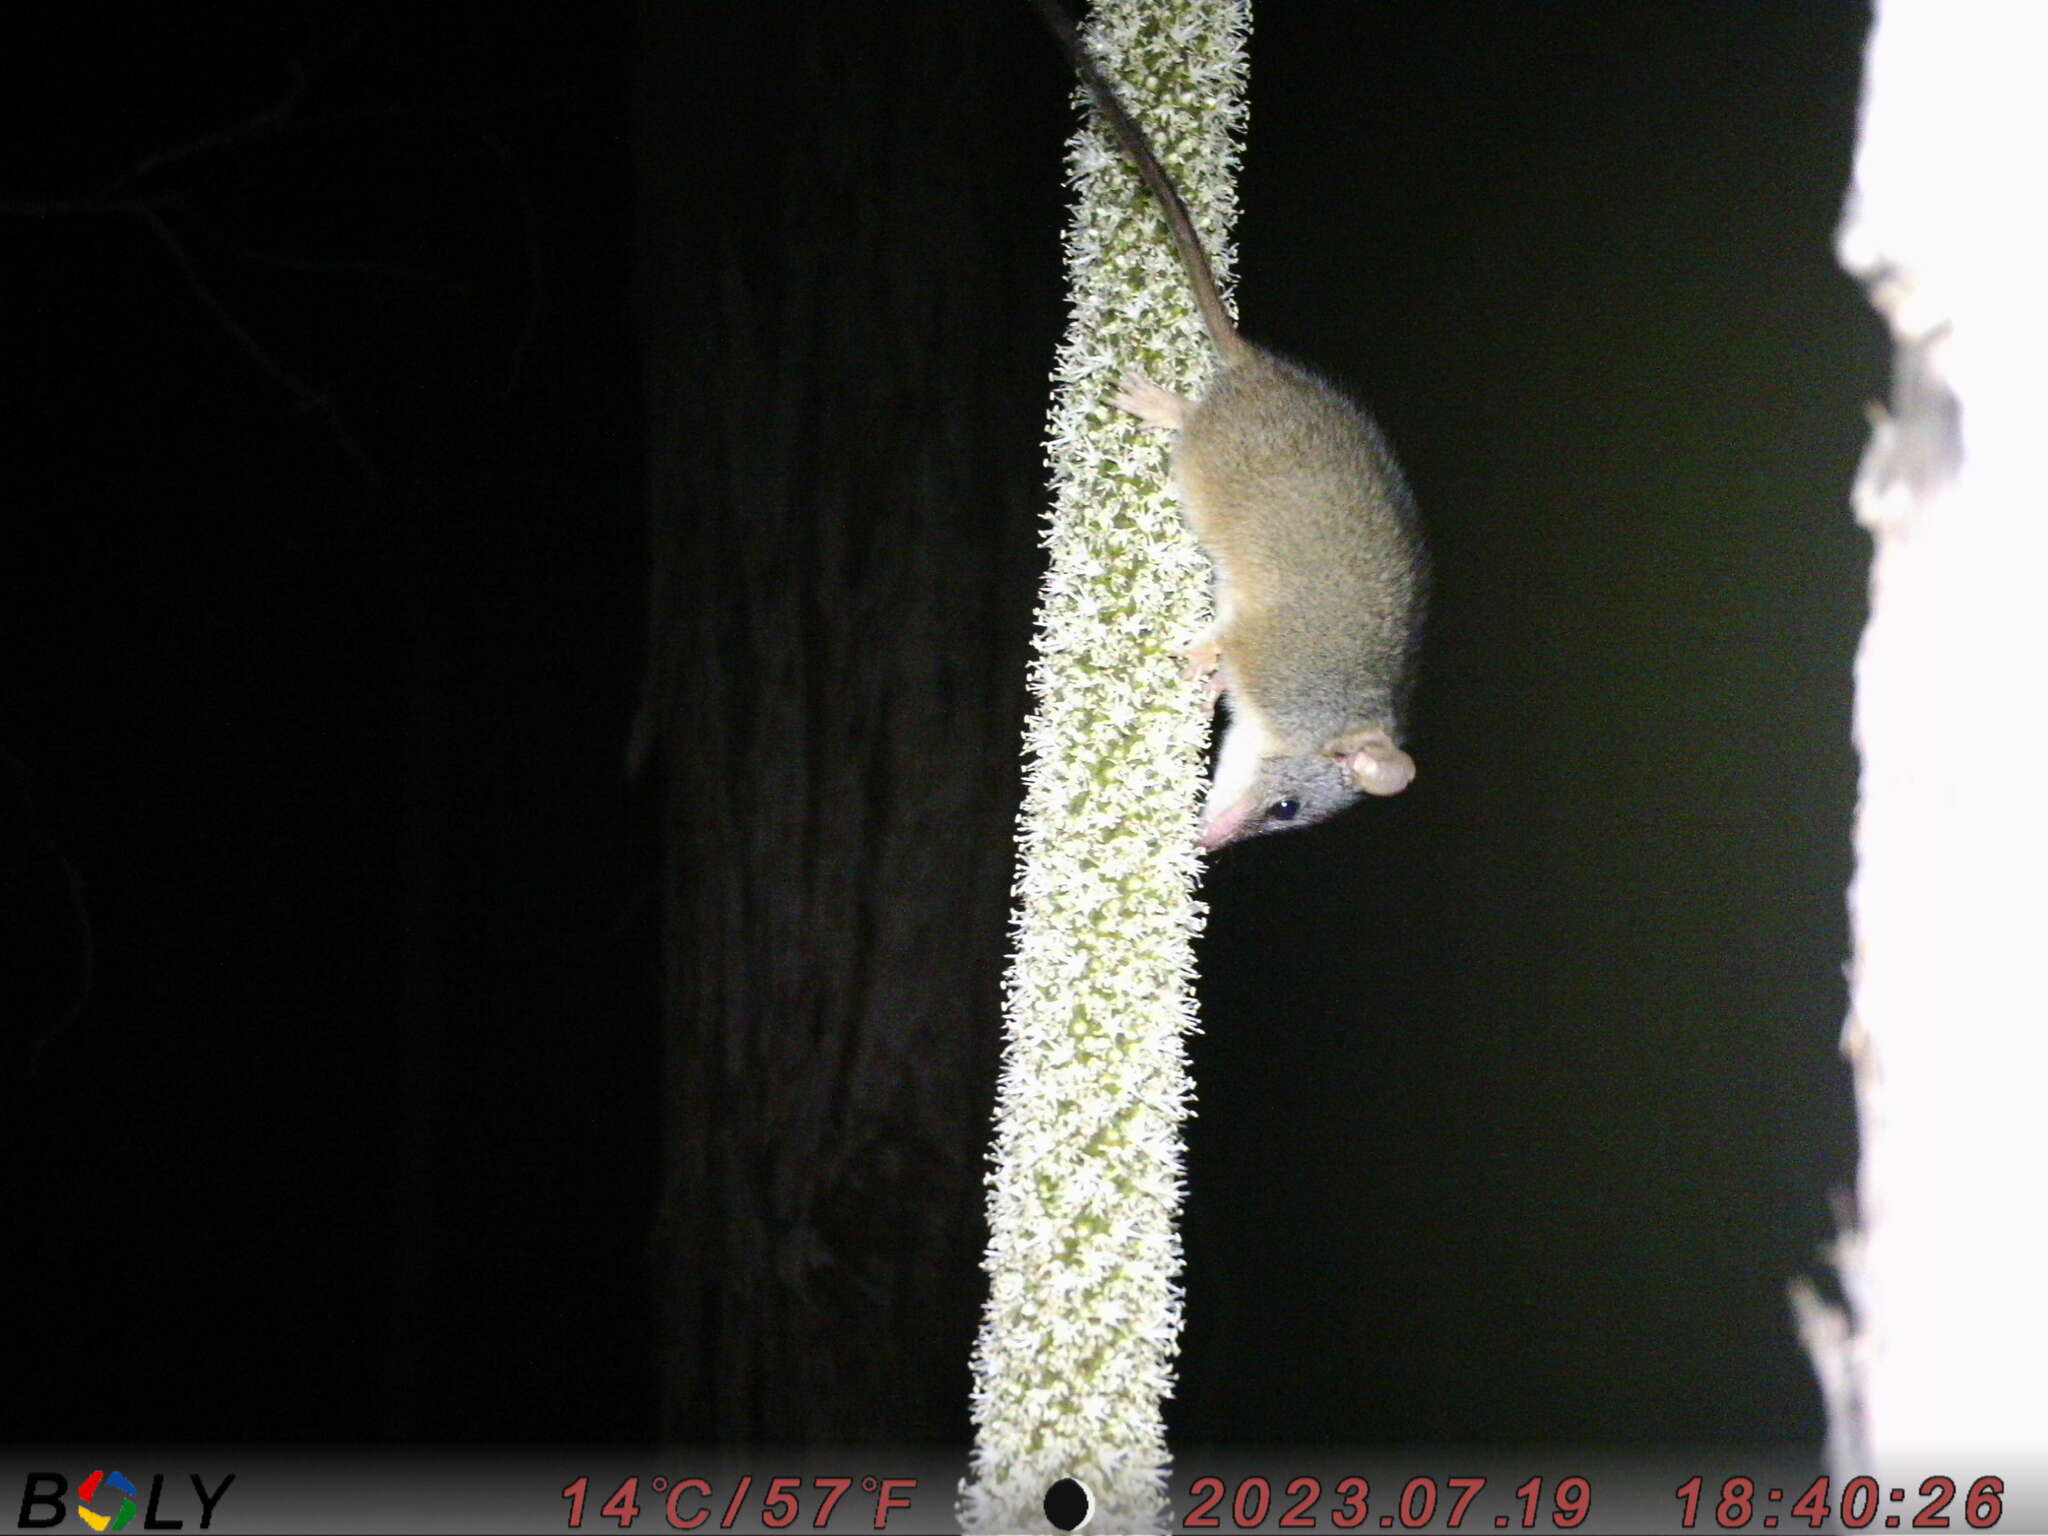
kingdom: Animalia
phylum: Chordata
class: Mammalia
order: Dasyuromorphia
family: Dasyuridae
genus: Antechinus
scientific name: Antechinus flavipes
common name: Yellow-footed antechinus
